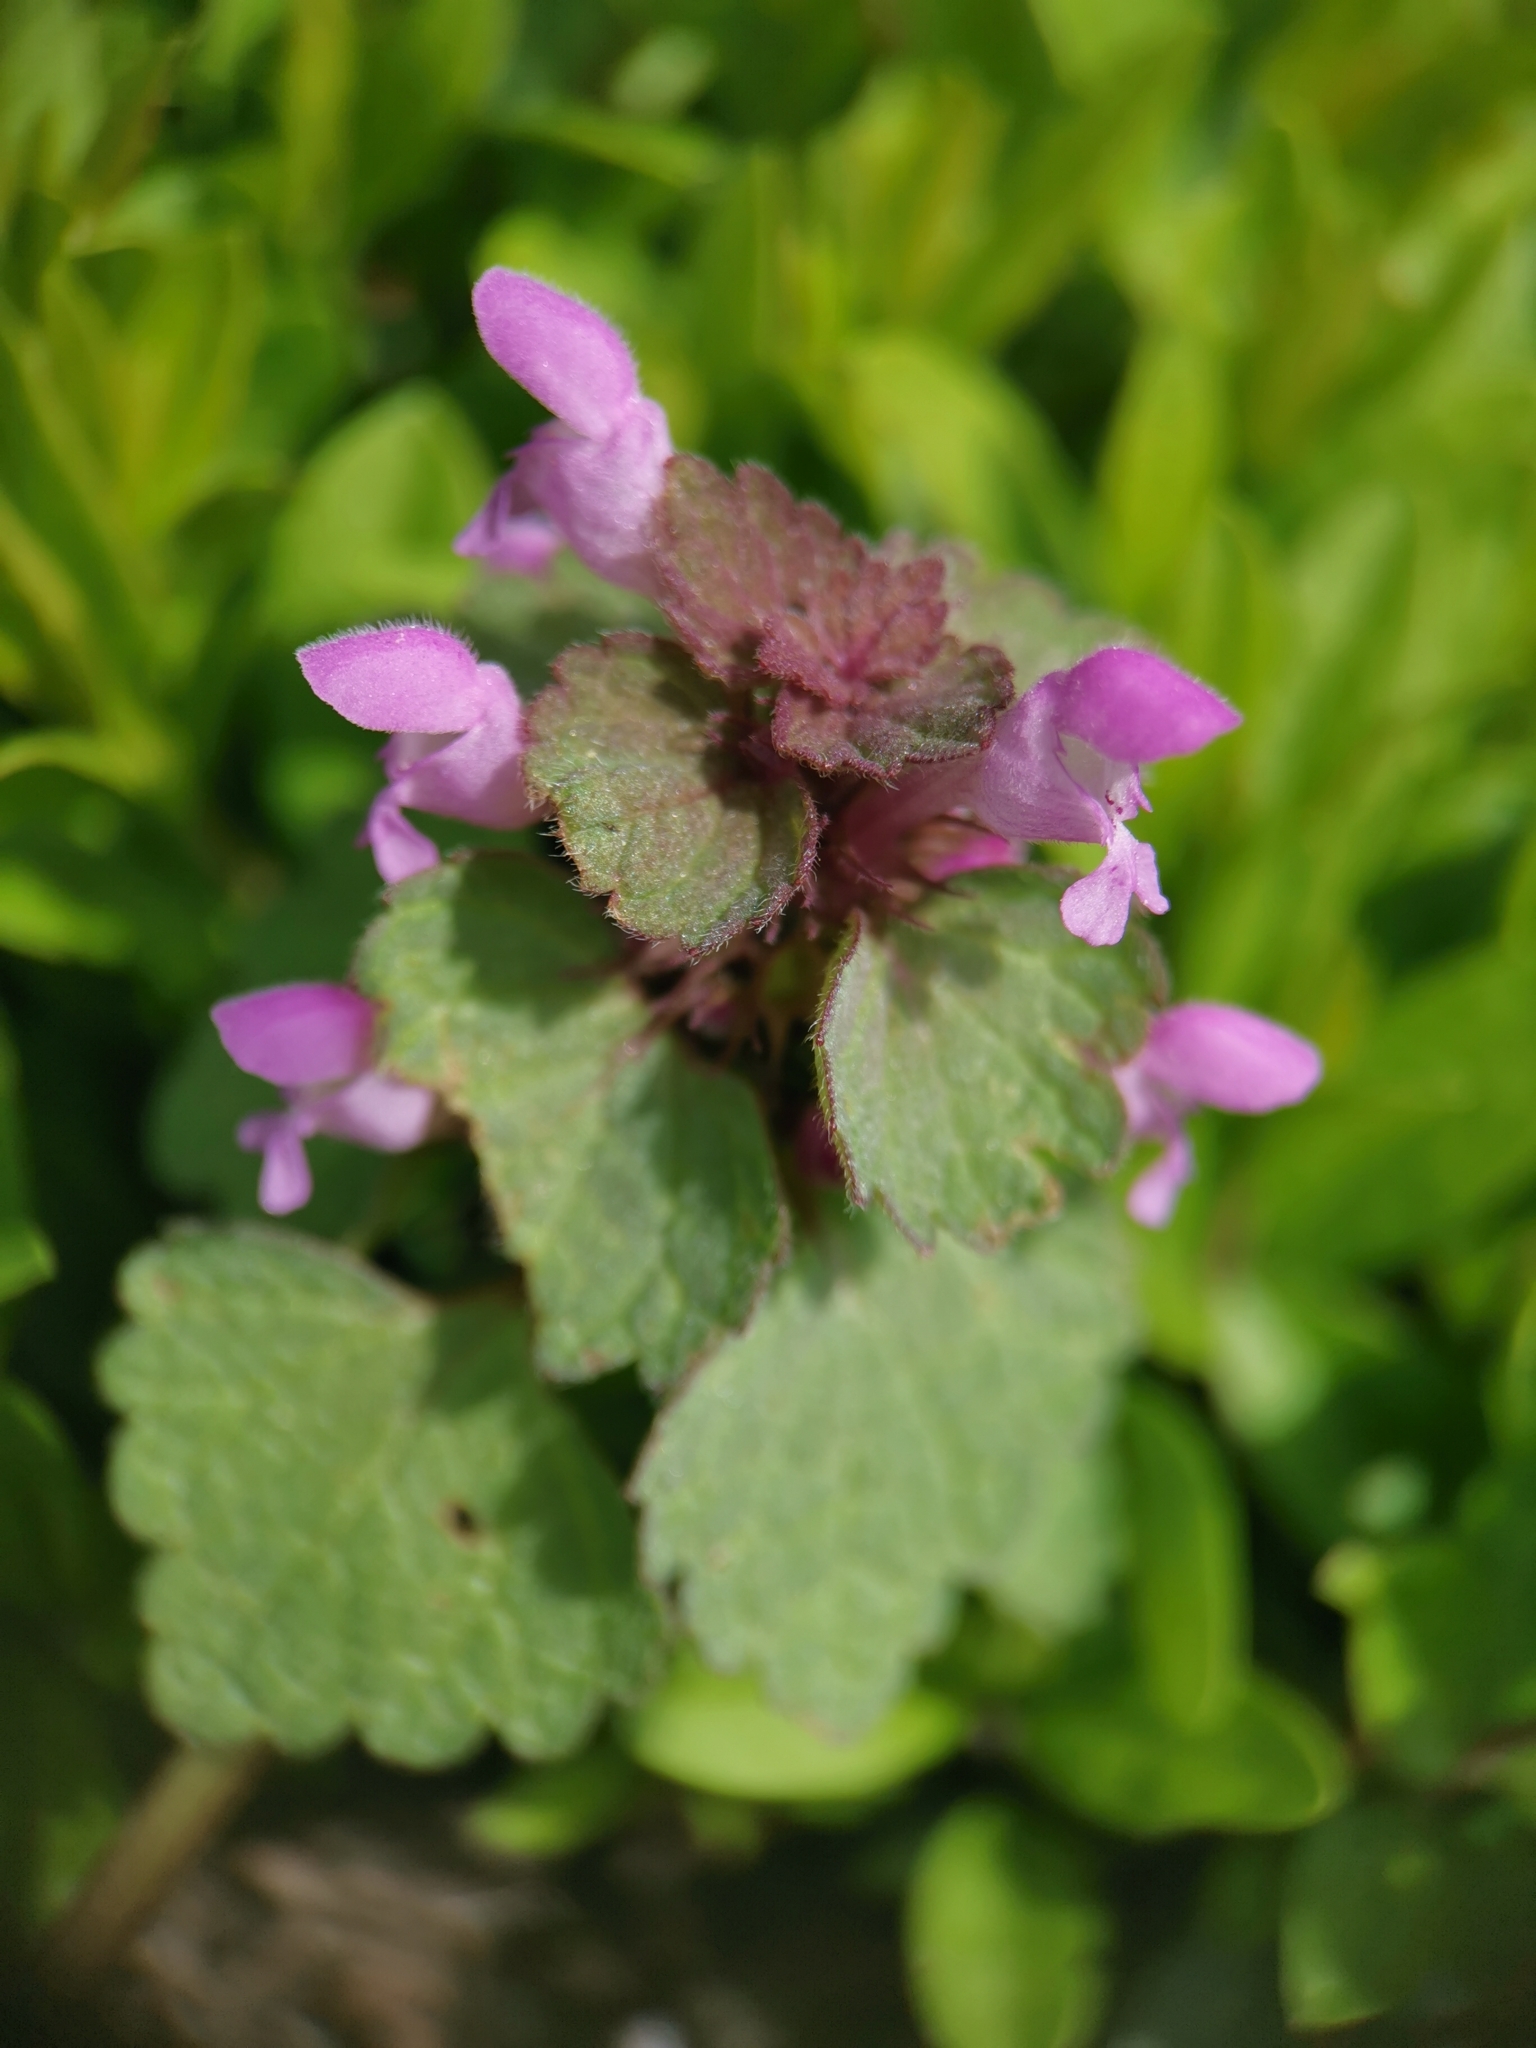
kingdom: Plantae
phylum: Tracheophyta
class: Magnoliopsida
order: Lamiales
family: Lamiaceae
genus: Lamium
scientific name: Lamium purpureum
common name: Red dead-nettle
